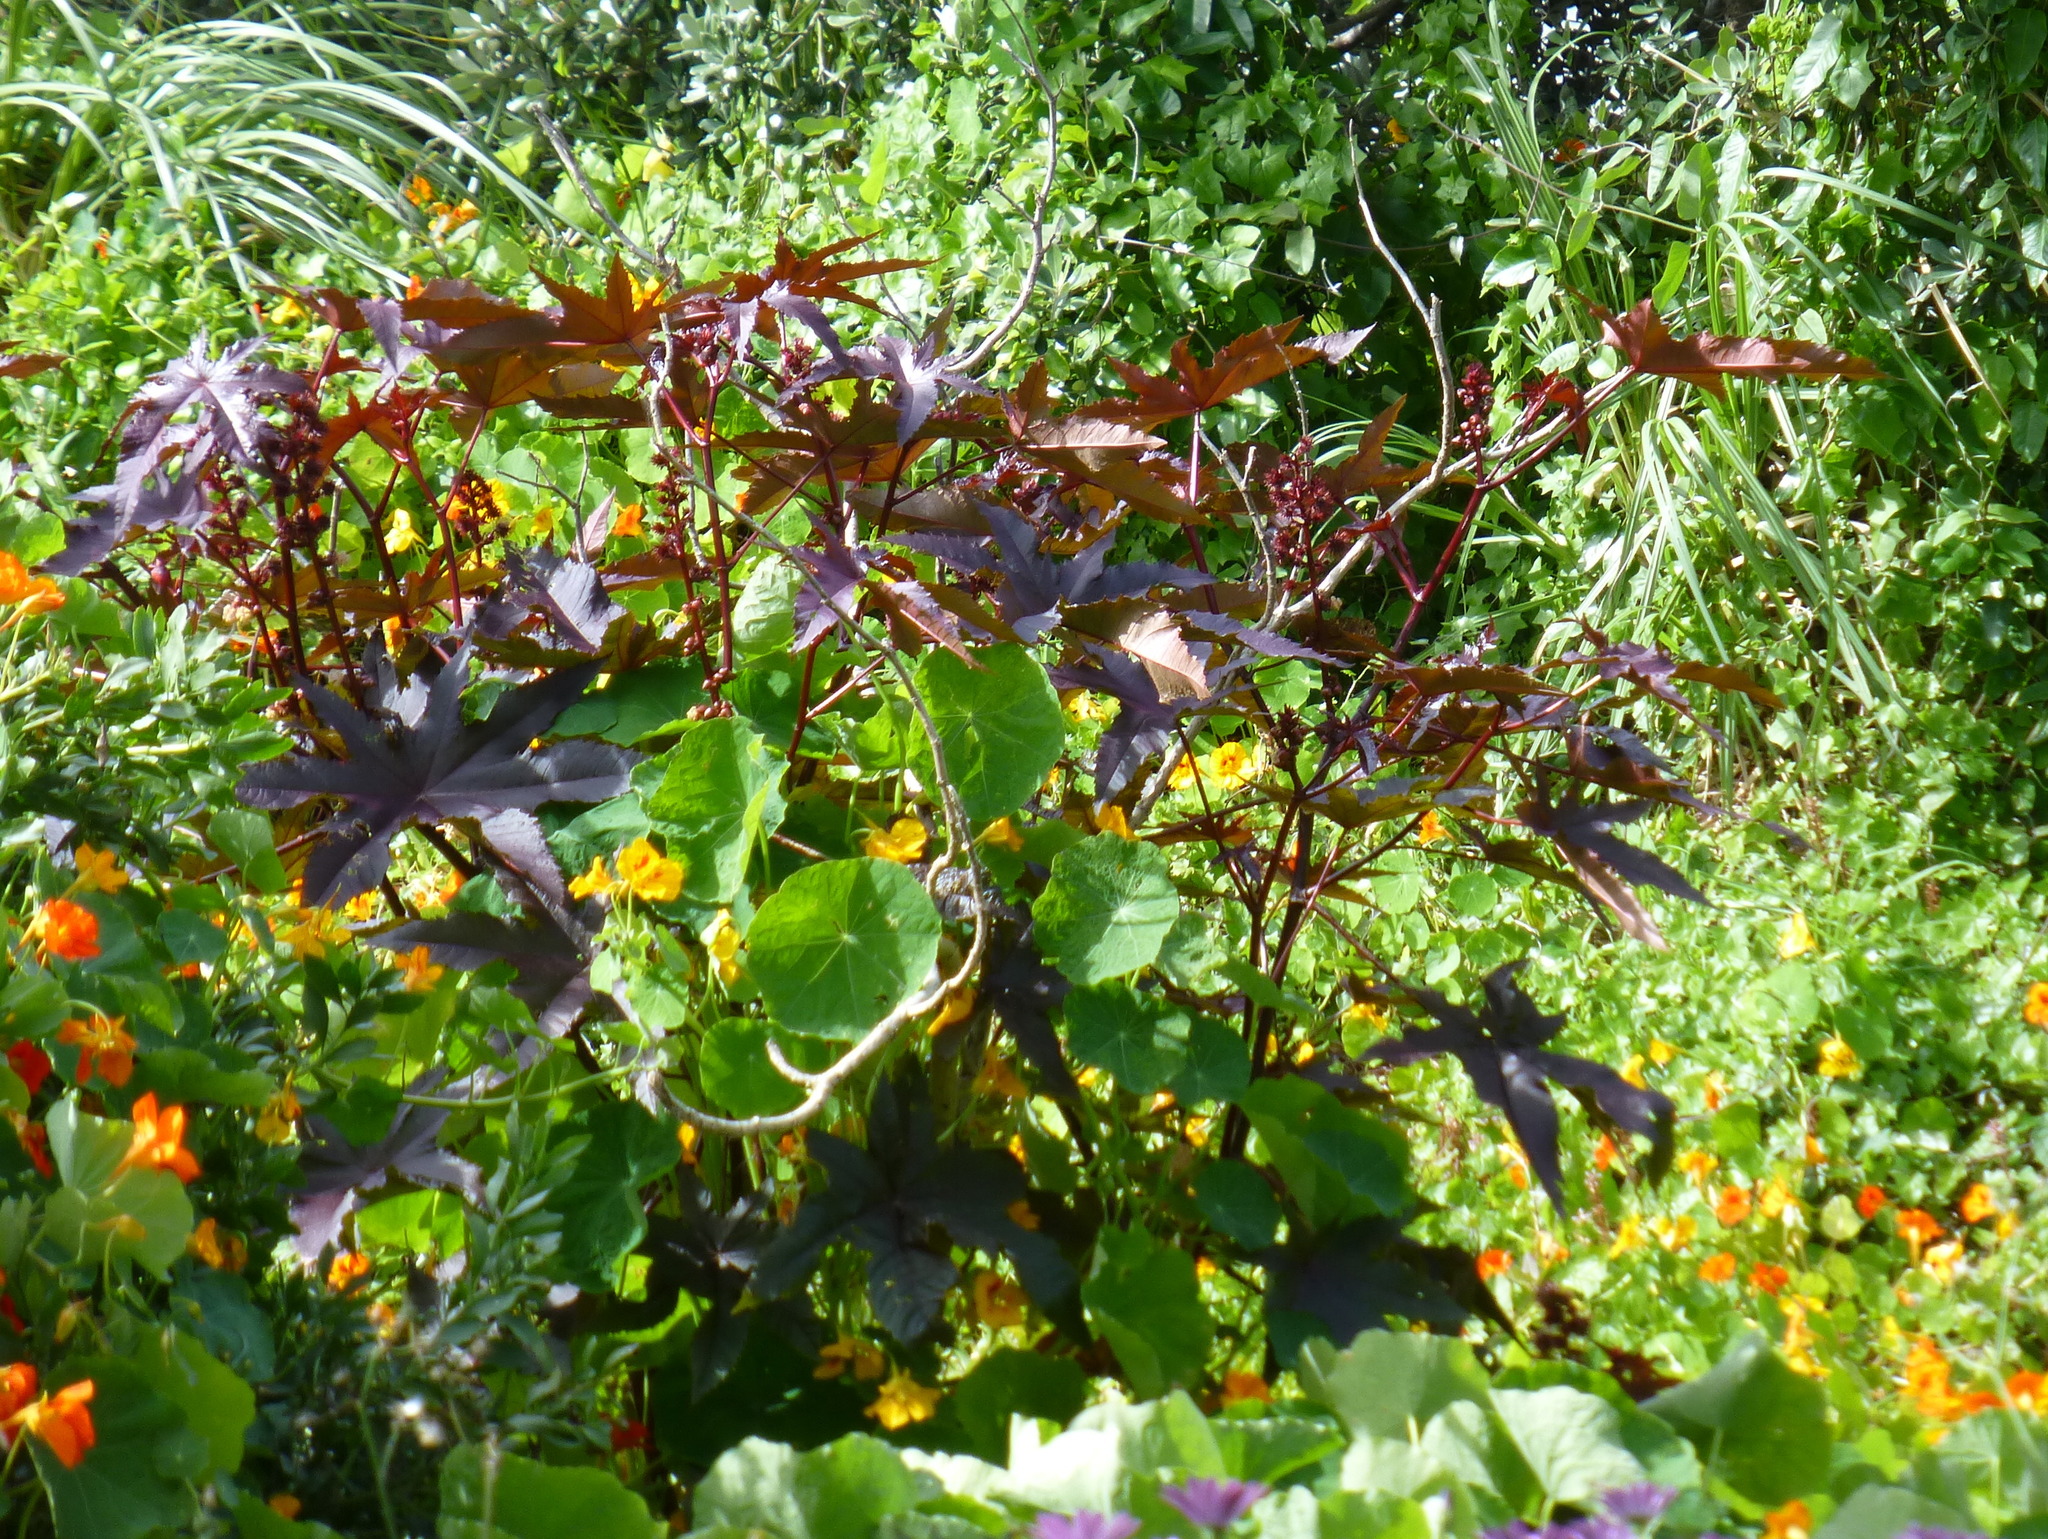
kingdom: Plantae
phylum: Tracheophyta
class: Magnoliopsida
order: Malpighiales
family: Euphorbiaceae
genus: Ricinus
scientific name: Ricinus communis
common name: Castor-oil-plant
